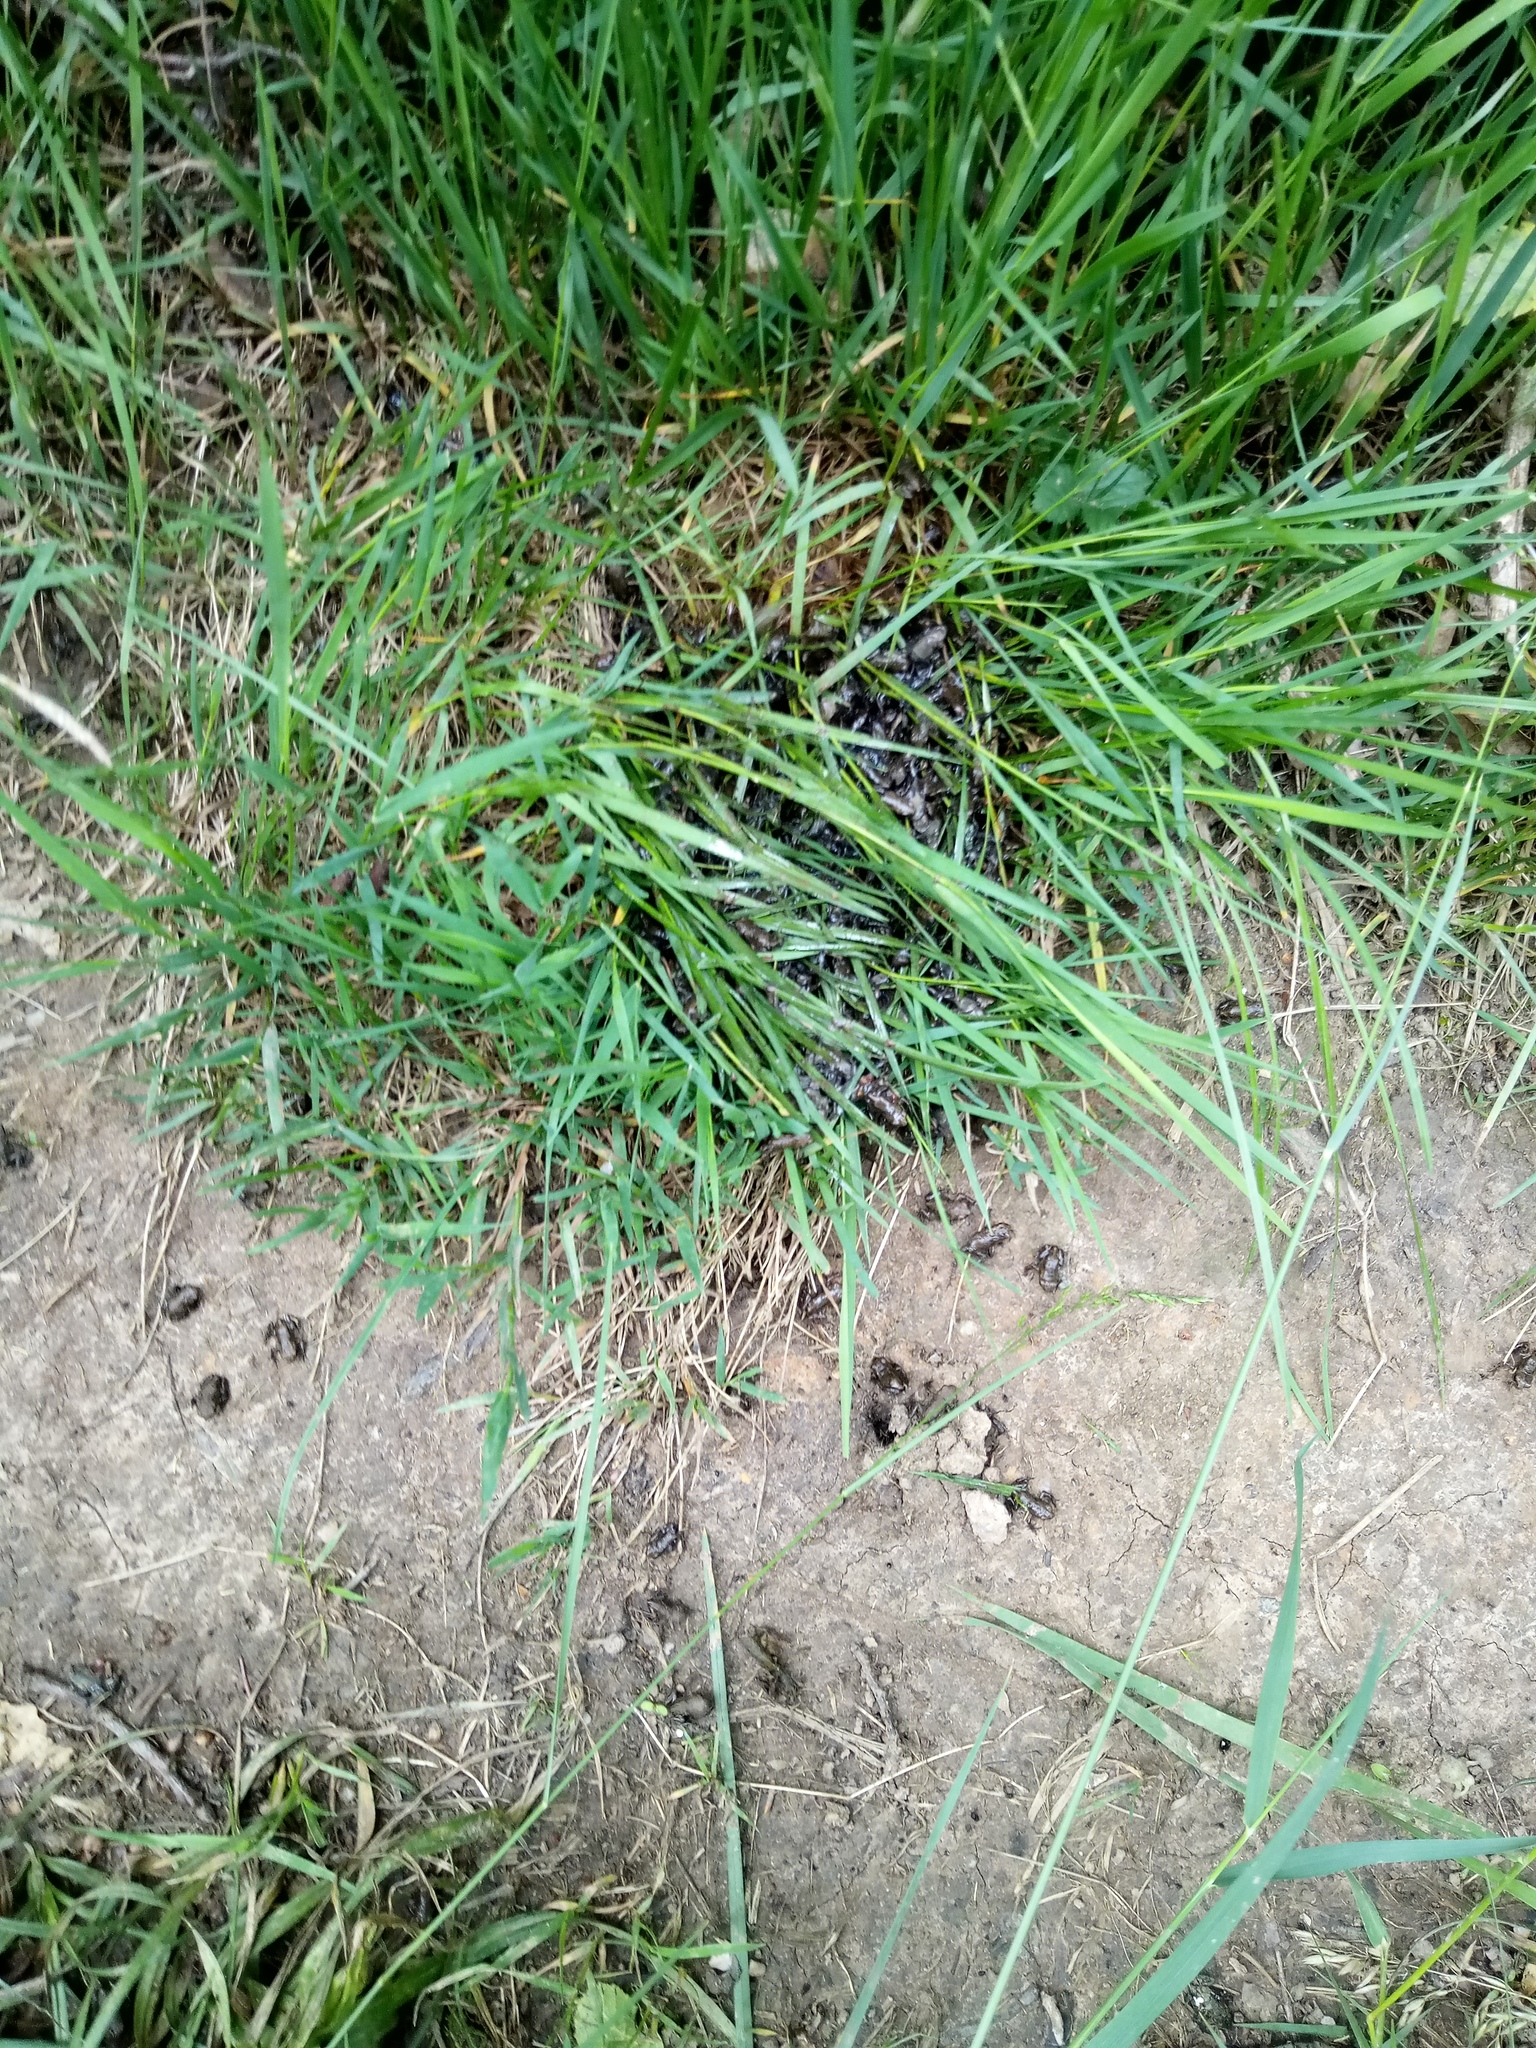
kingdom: Animalia
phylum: Chordata
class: Amphibia
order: Anura
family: Bufonidae
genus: Bufo
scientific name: Bufo bufo
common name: Common toad
